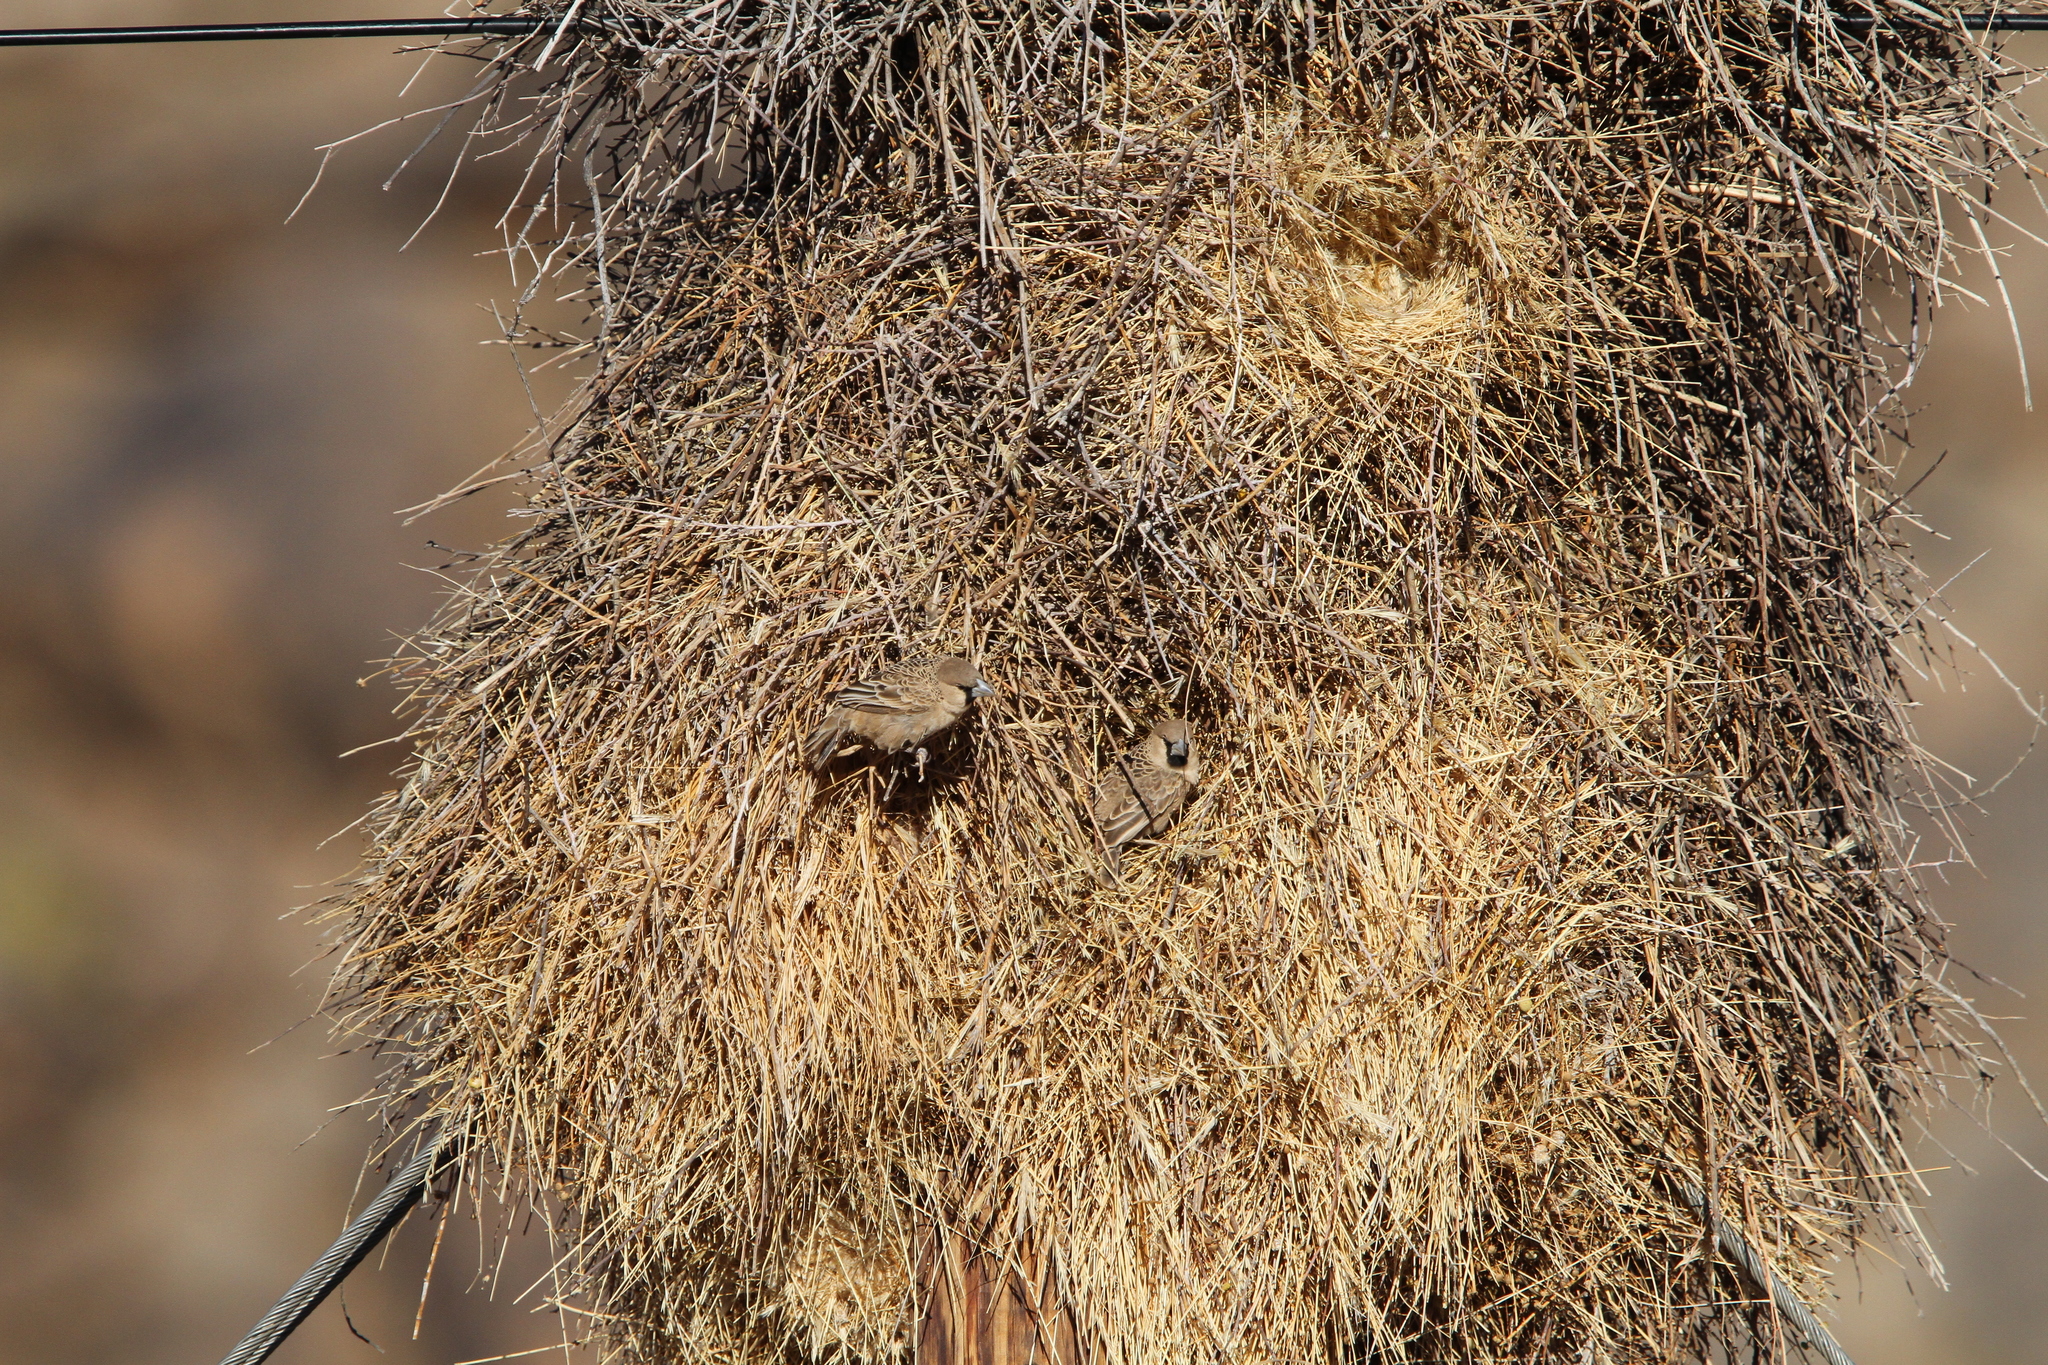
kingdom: Animalia
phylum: Chordata
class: Aves
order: Passeriformes
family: Passeridae
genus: Philetairus
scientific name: Philetairus socius
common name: Sociable weaver
